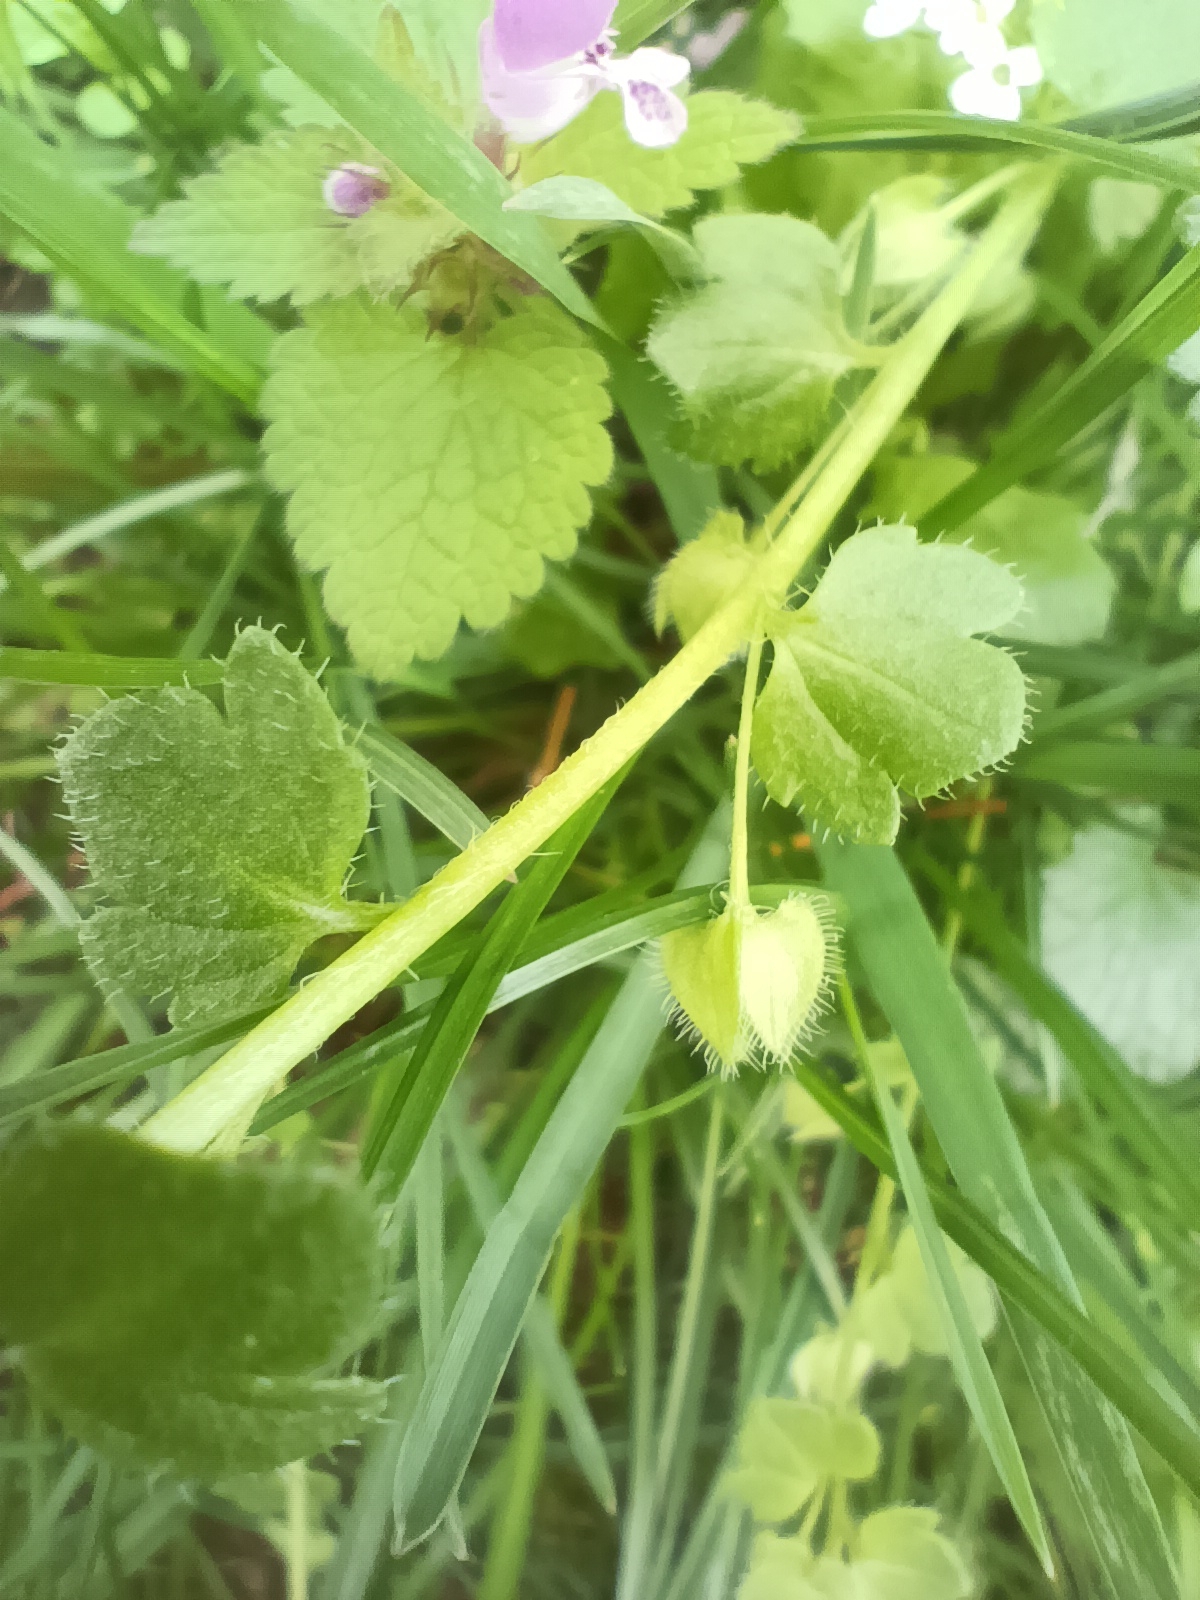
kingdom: Plantae
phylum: Tracheophyta
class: Magnoliopsida
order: Lamiales
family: Plantaginaceae
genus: Veronica
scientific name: Veronica hederifolia
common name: Ivy-leaved speedwell
